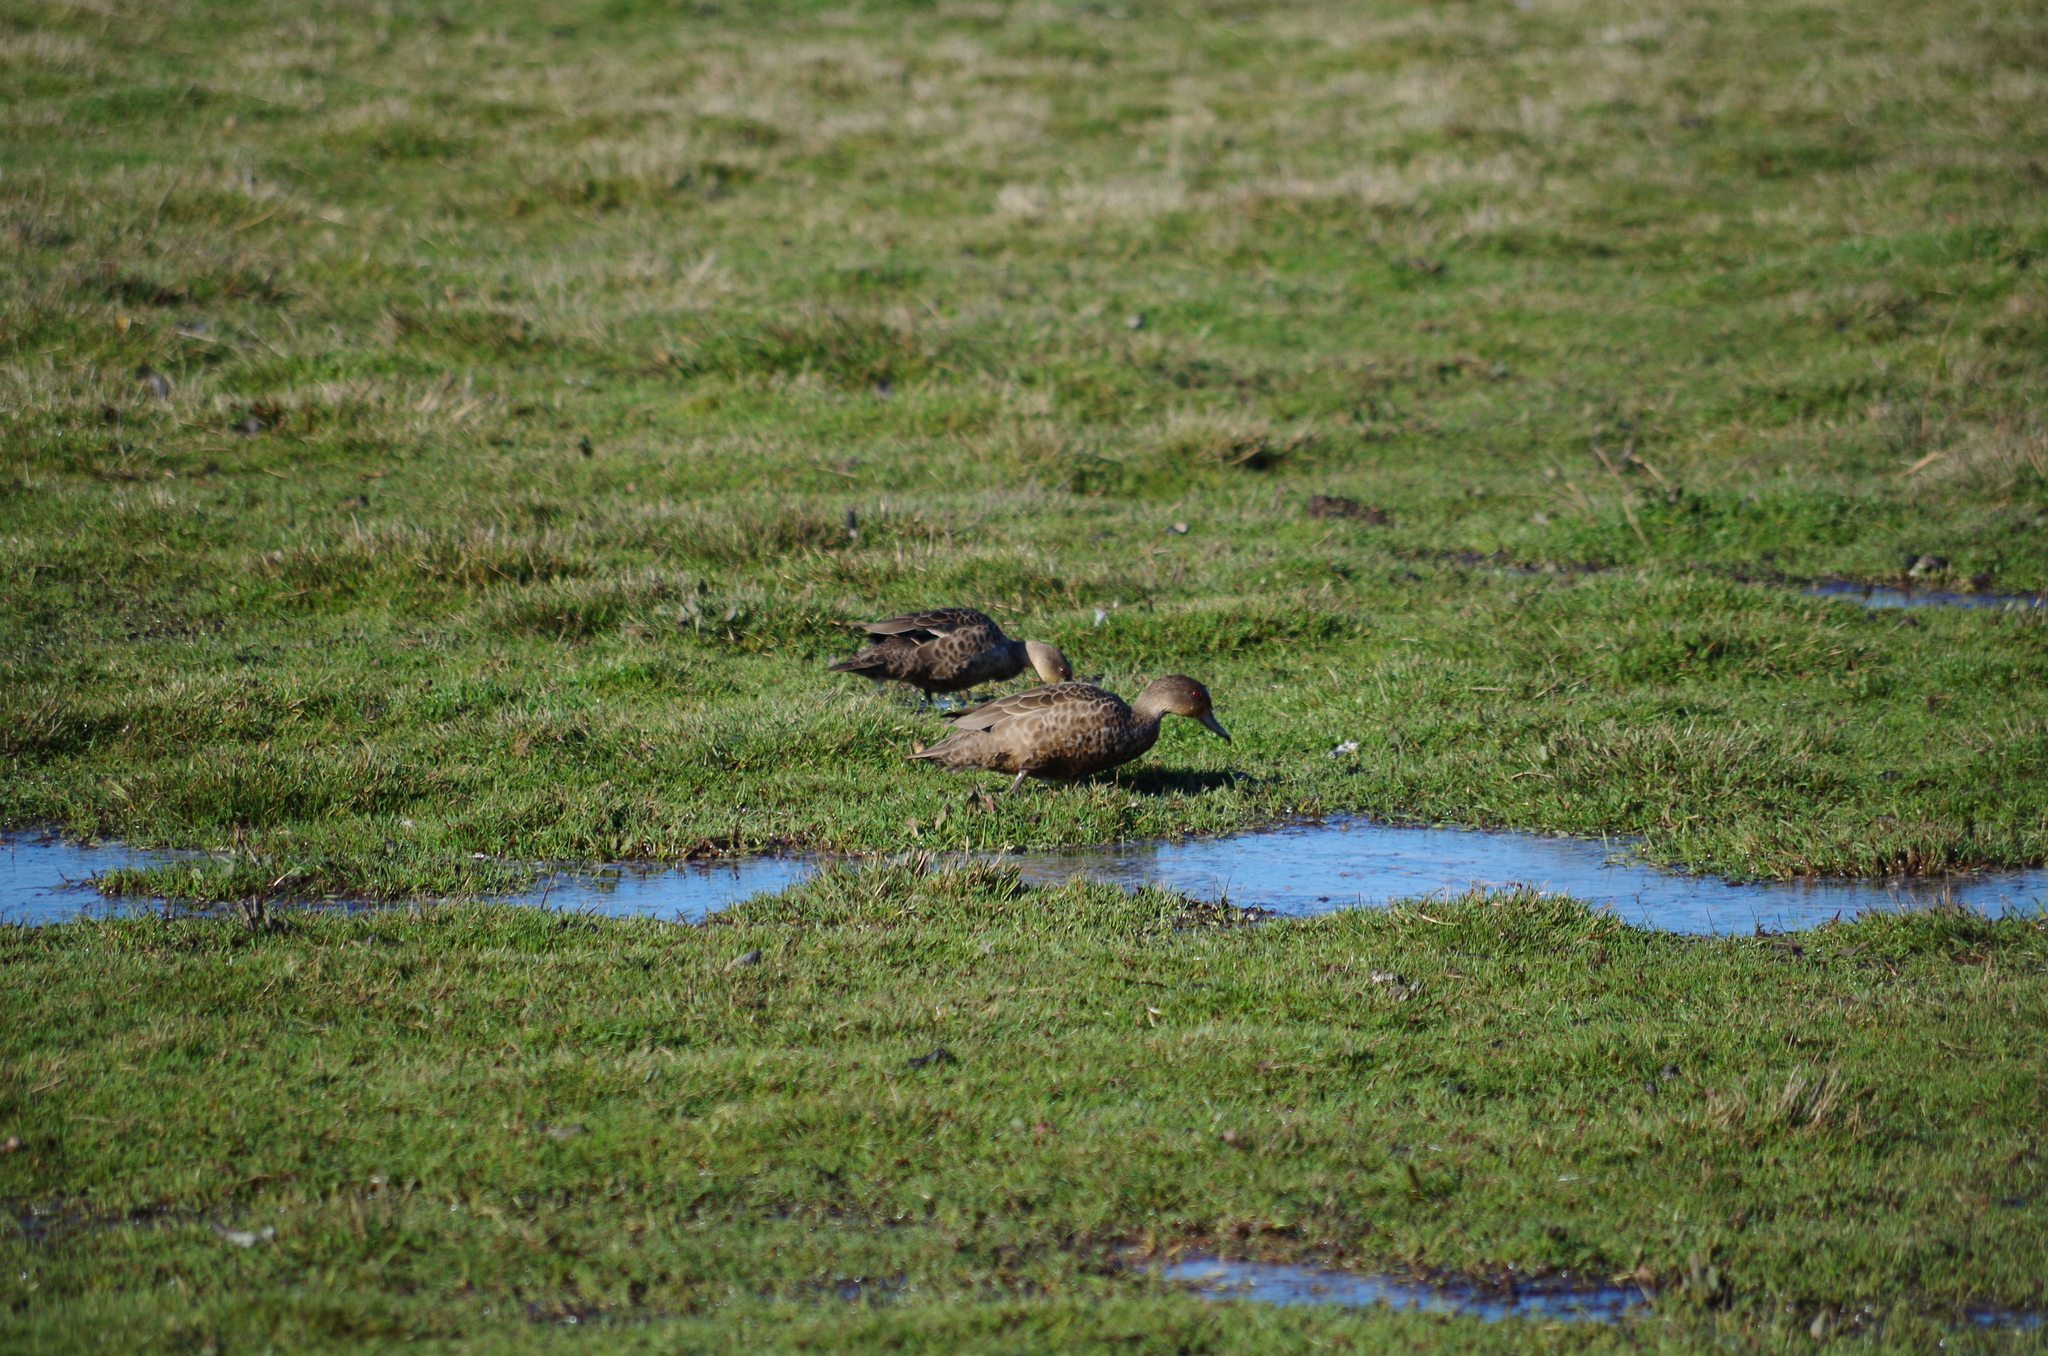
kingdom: Animalia
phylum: Chordata
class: Aves
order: Anseriformes
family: Anatidae
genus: Anas
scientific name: Anas gracilis
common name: Grey teal
